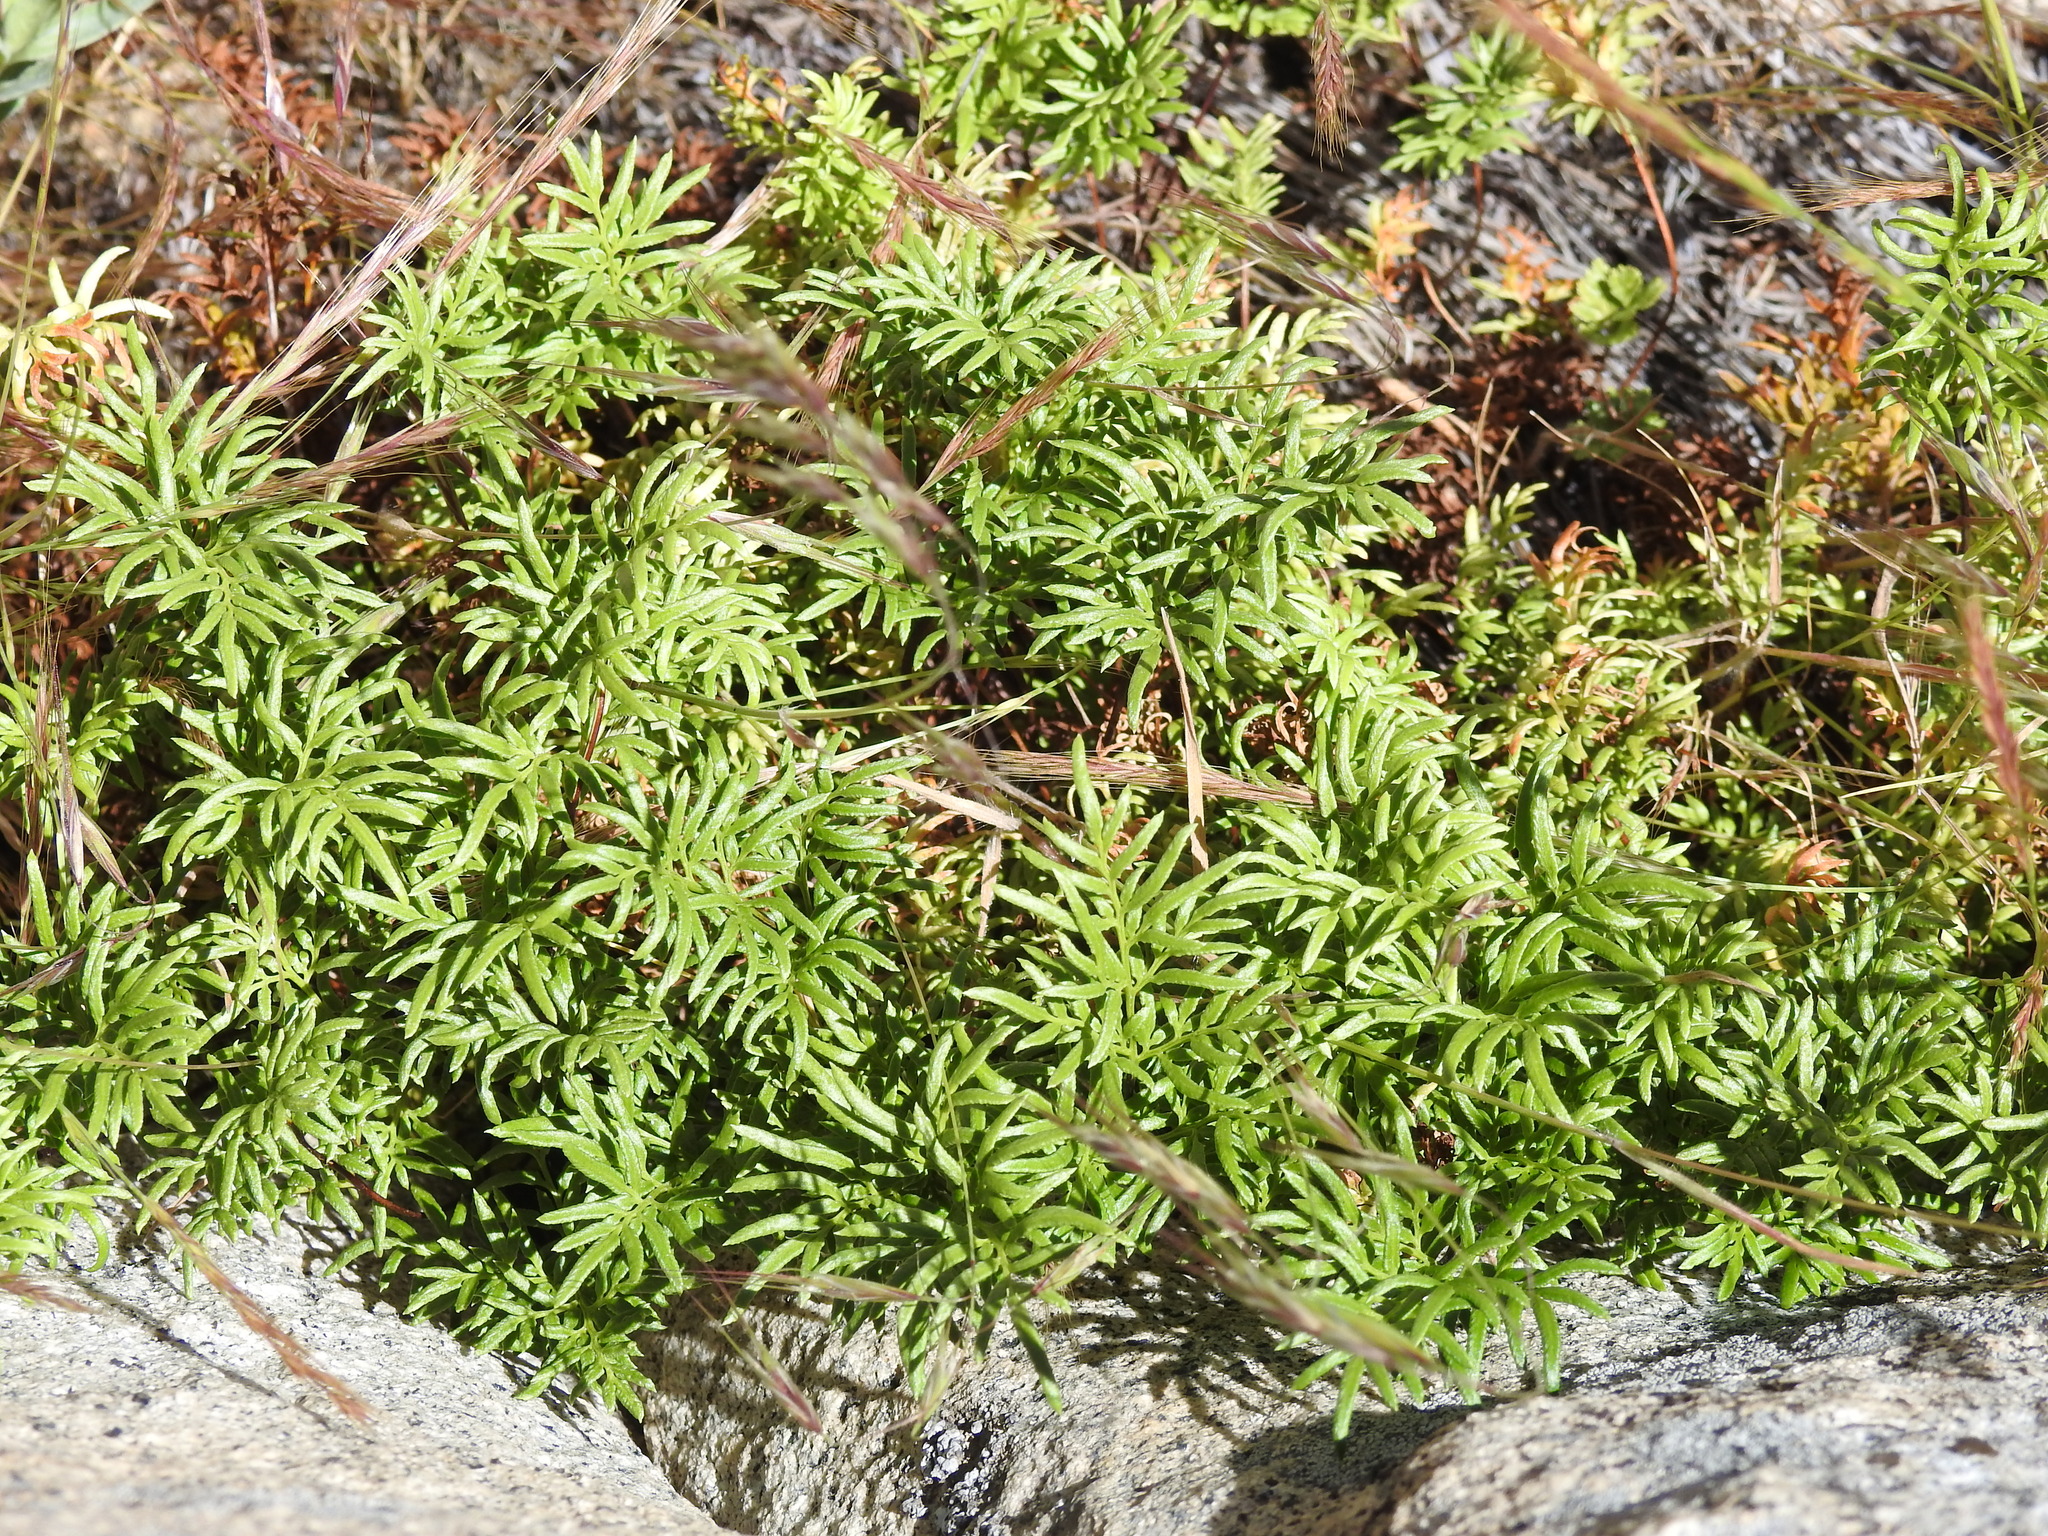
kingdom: Plantae
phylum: Tracheophyta
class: Polypodiopsida
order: Polypodiales
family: Pteridaceae
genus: Aspidotis
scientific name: Aspidotis densa
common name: Indian's dream
